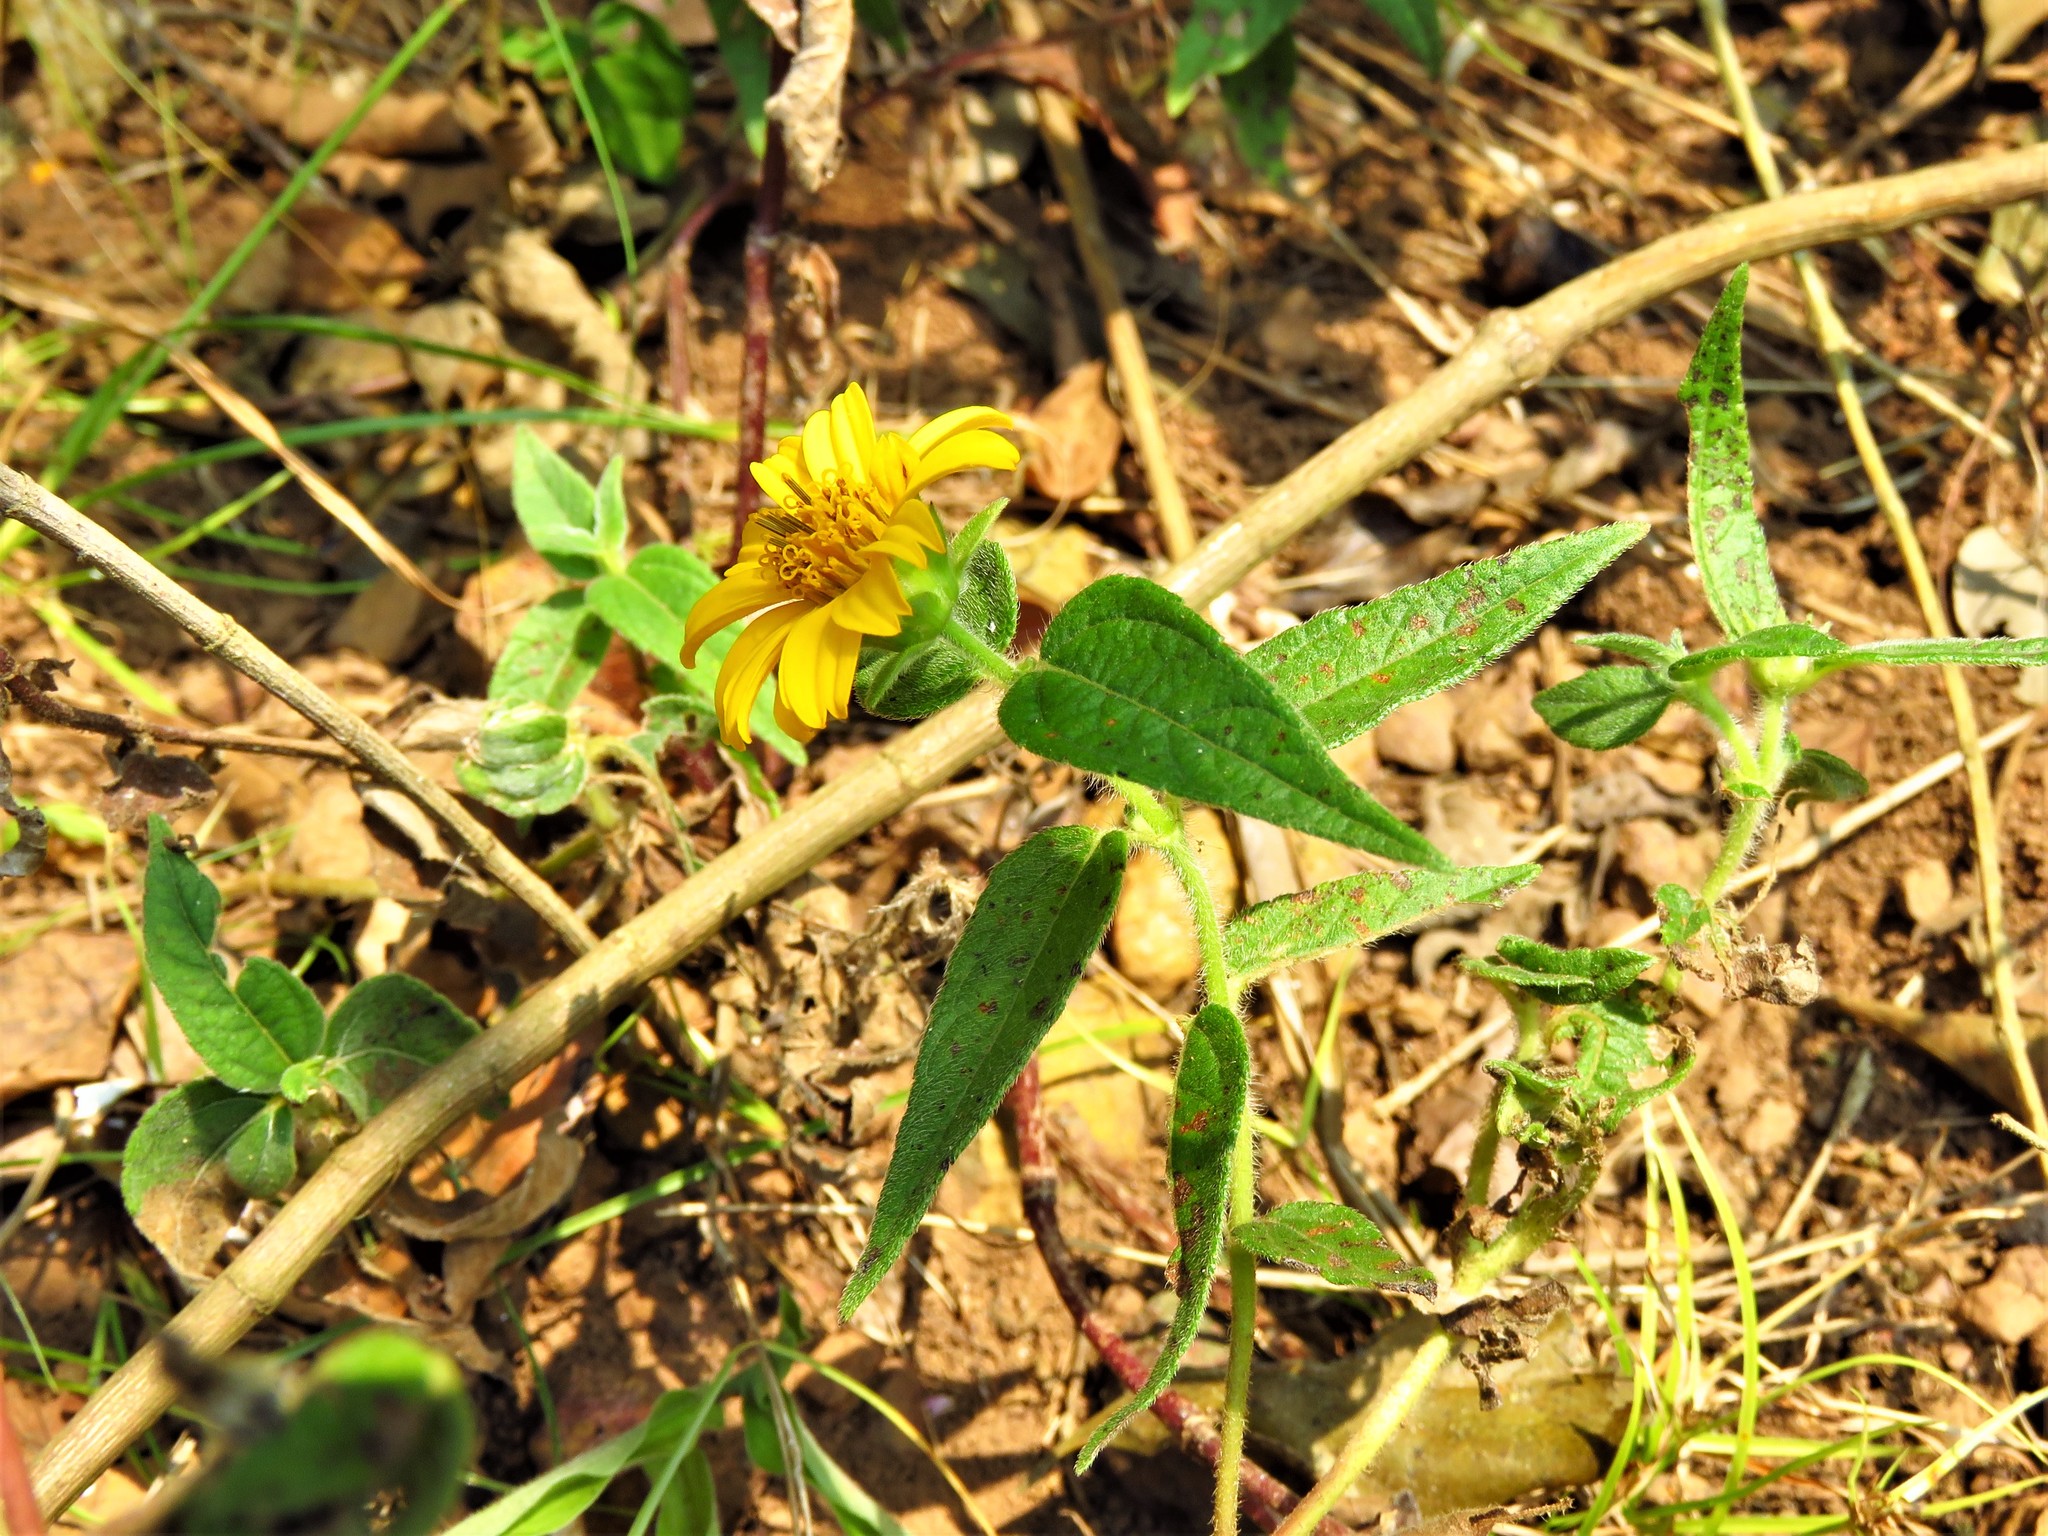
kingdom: Plantae
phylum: Tracheophyta
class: Magnoliopsida
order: Asterales
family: Asteraceae
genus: Aspilia
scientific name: Aspilia pluriseta
